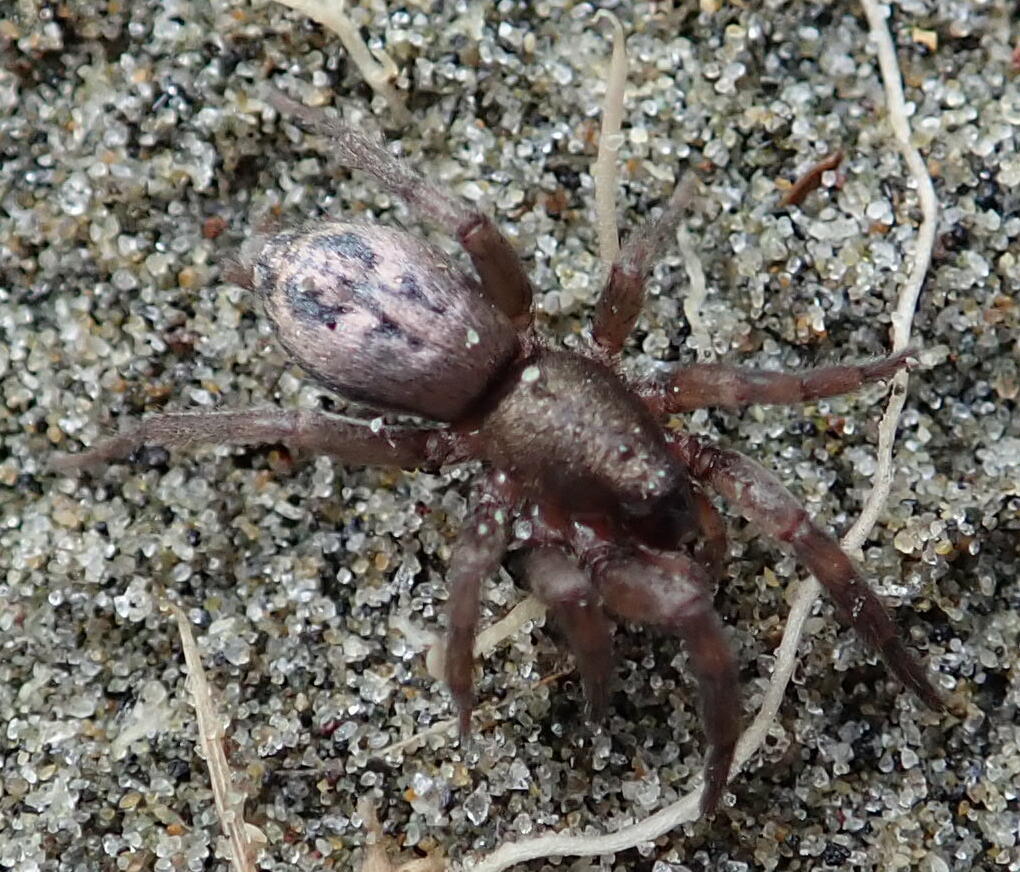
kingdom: Animalia
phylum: Arthropoda
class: Arachnida
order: Araneae
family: Gnaphosidae
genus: Scotophaeus
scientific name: Scotophaeus pretiosus
